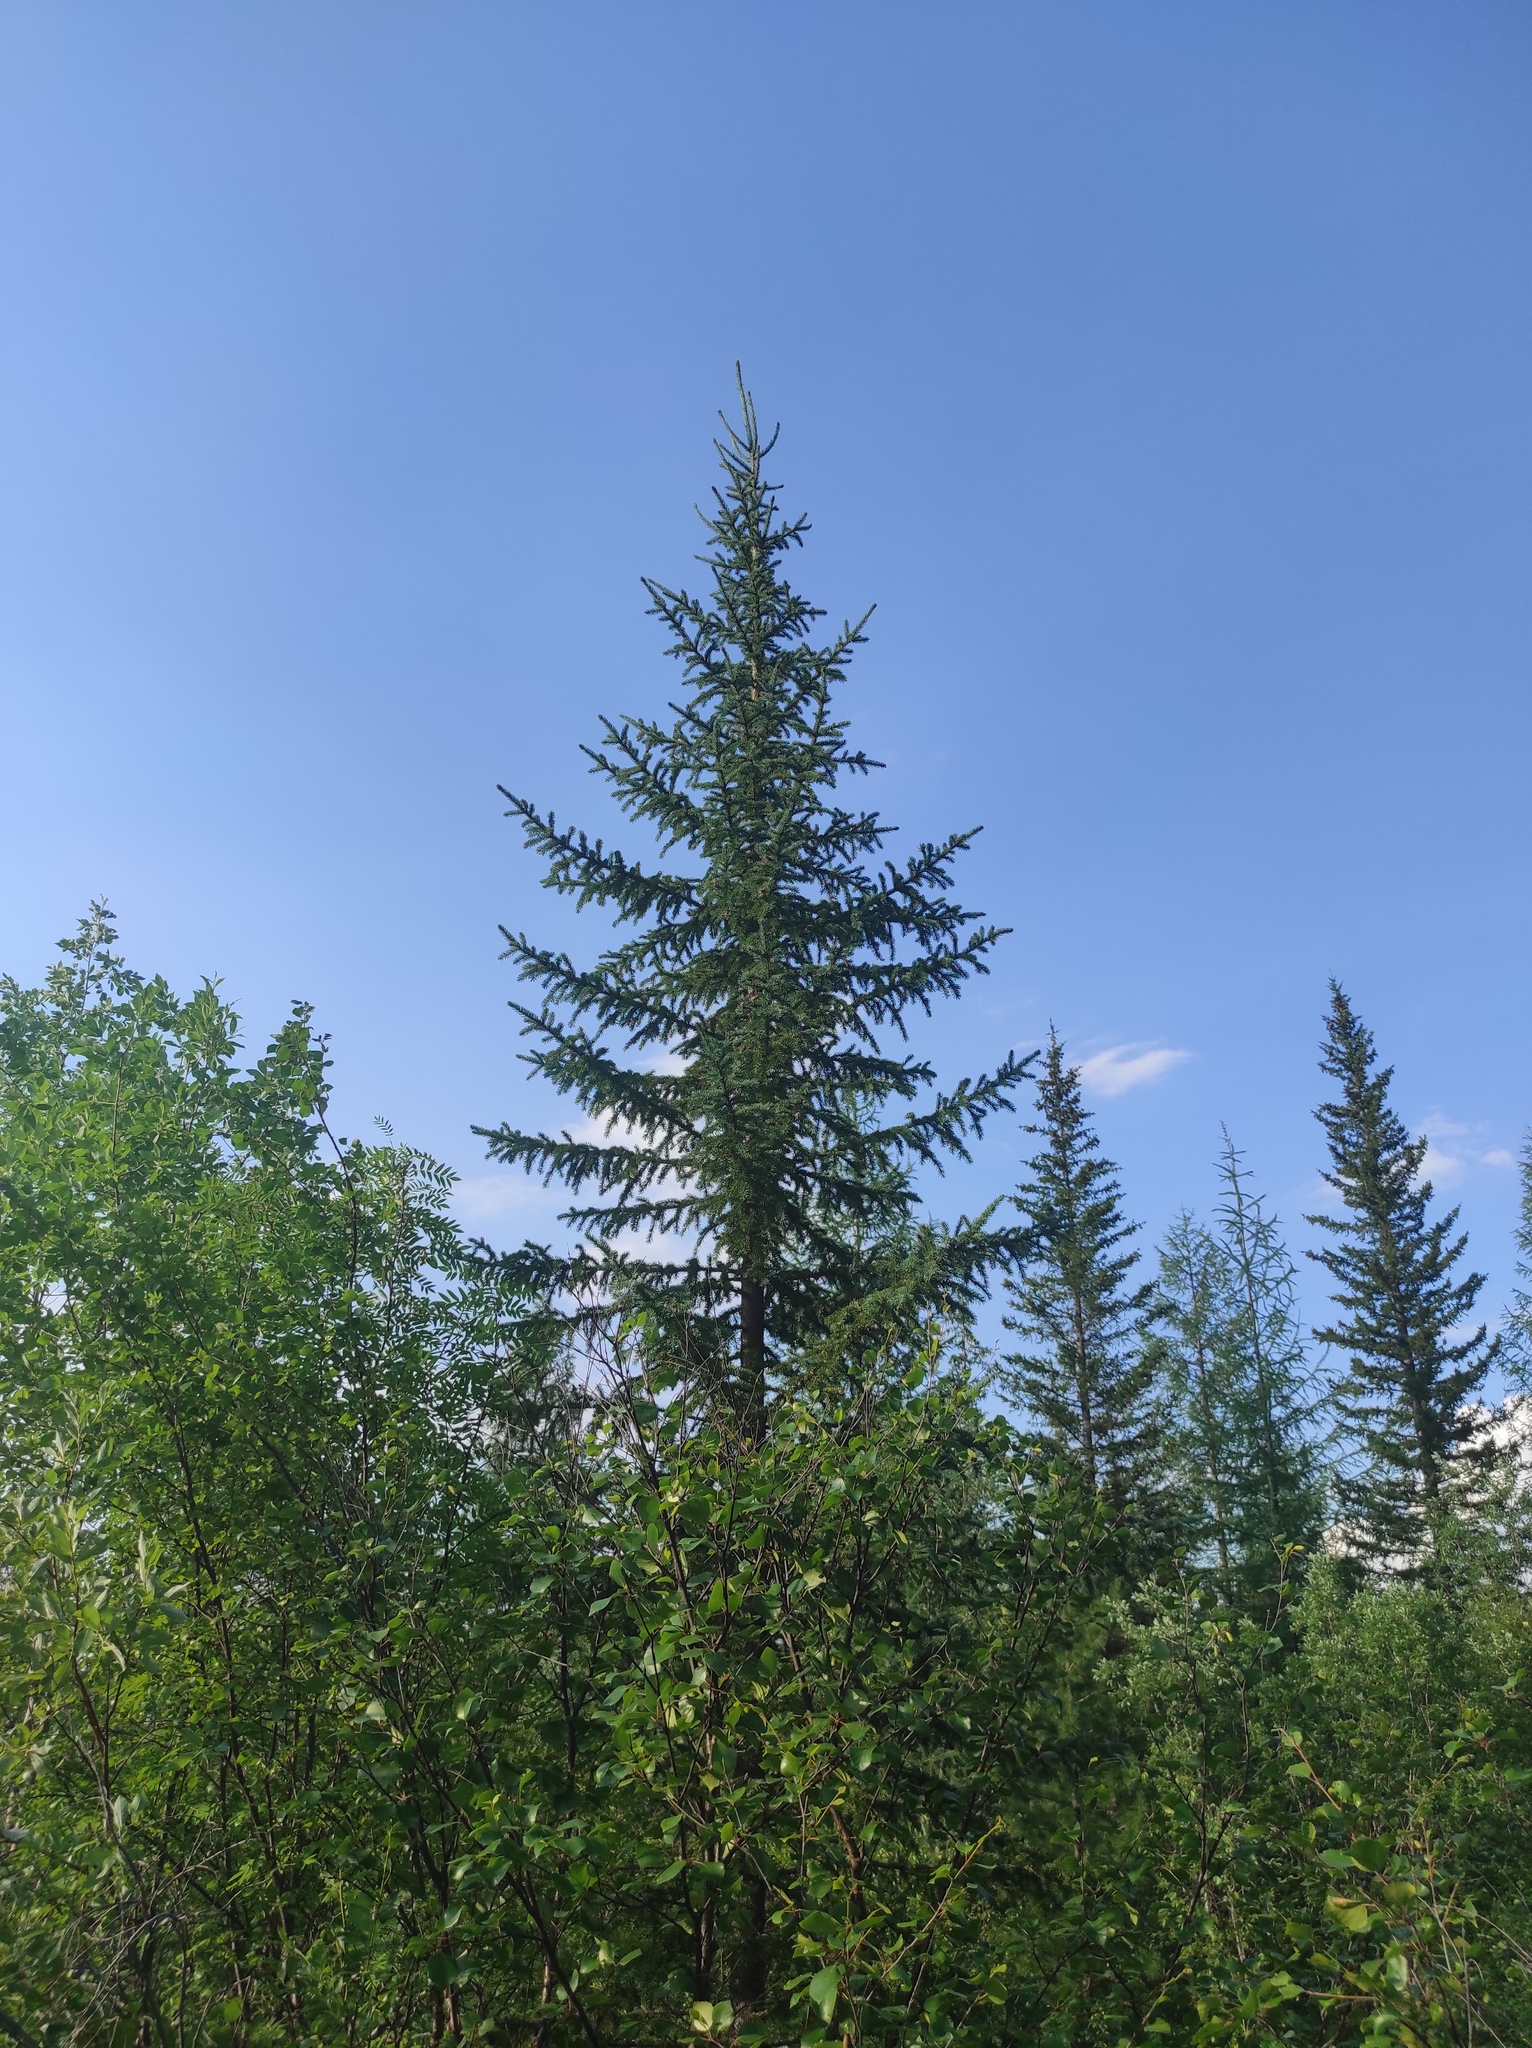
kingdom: Plantae
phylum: Tracheophyta
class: Pinopsida
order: Pinales
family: Pinaceae
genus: Picea
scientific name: Picea jezoensis
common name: Yeddo spruce
